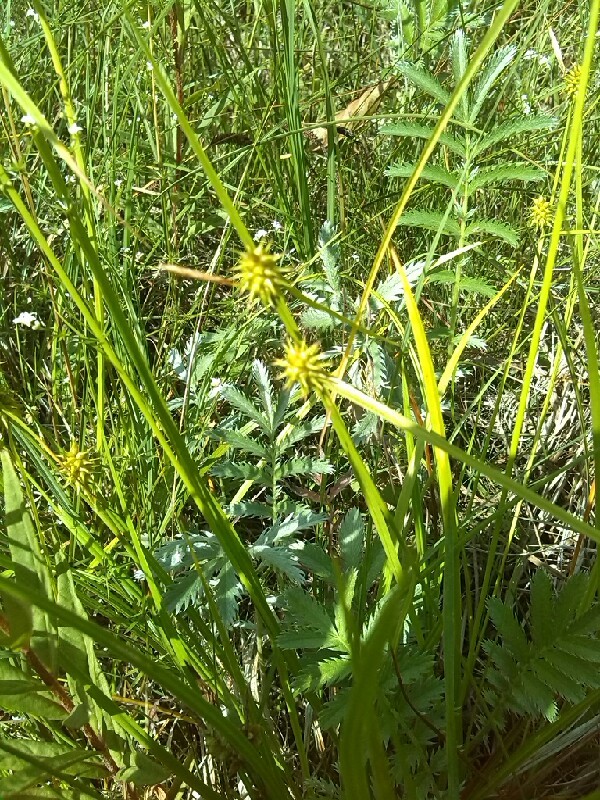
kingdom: Plantae
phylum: Tracheophyta
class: Liliopsida
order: Poales
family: Cyperaceae
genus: Carex
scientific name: Carex flava
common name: Large yellow-sedge
